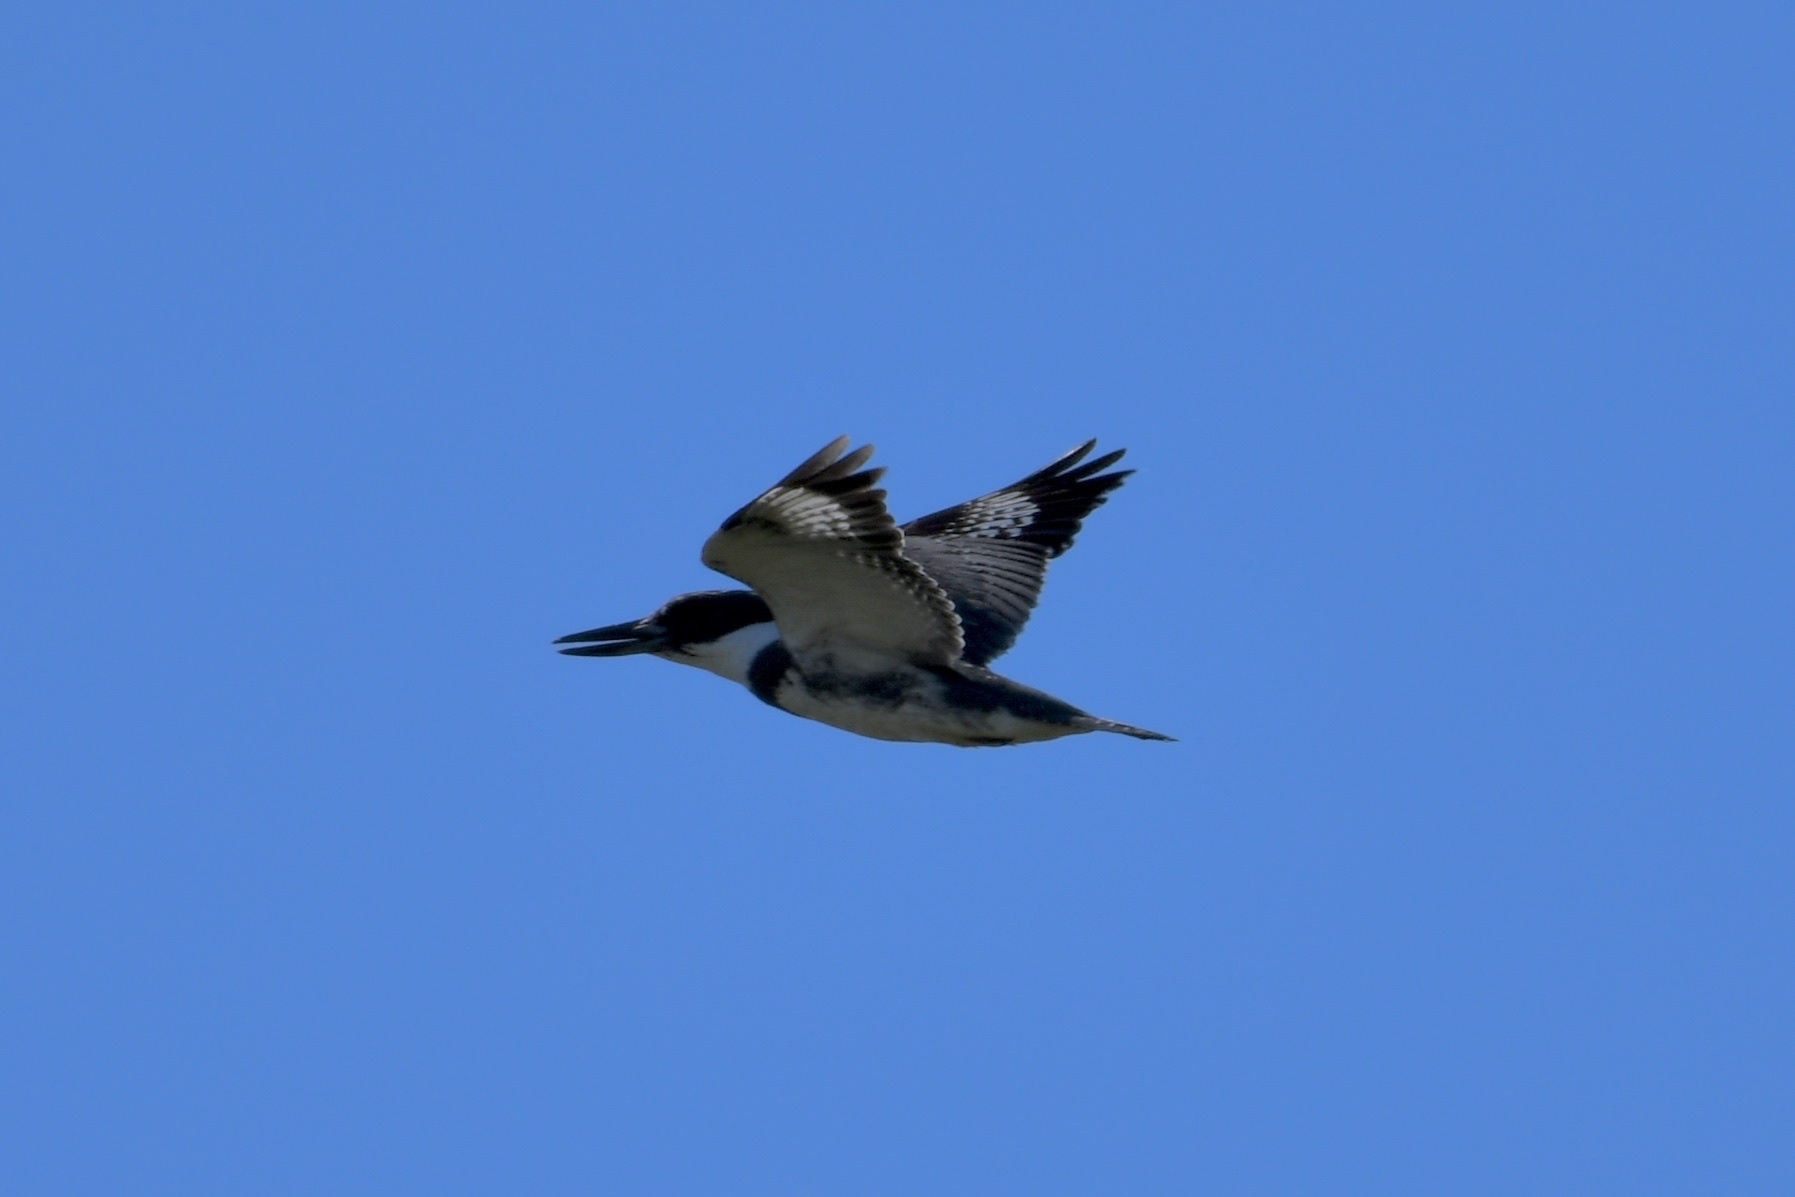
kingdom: Animalia
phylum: Chordata
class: Aves
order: Coraciiformes
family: Alcedinidae
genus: Megaceryle
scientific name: Megaceryle alcyon
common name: Belted kingfisher
